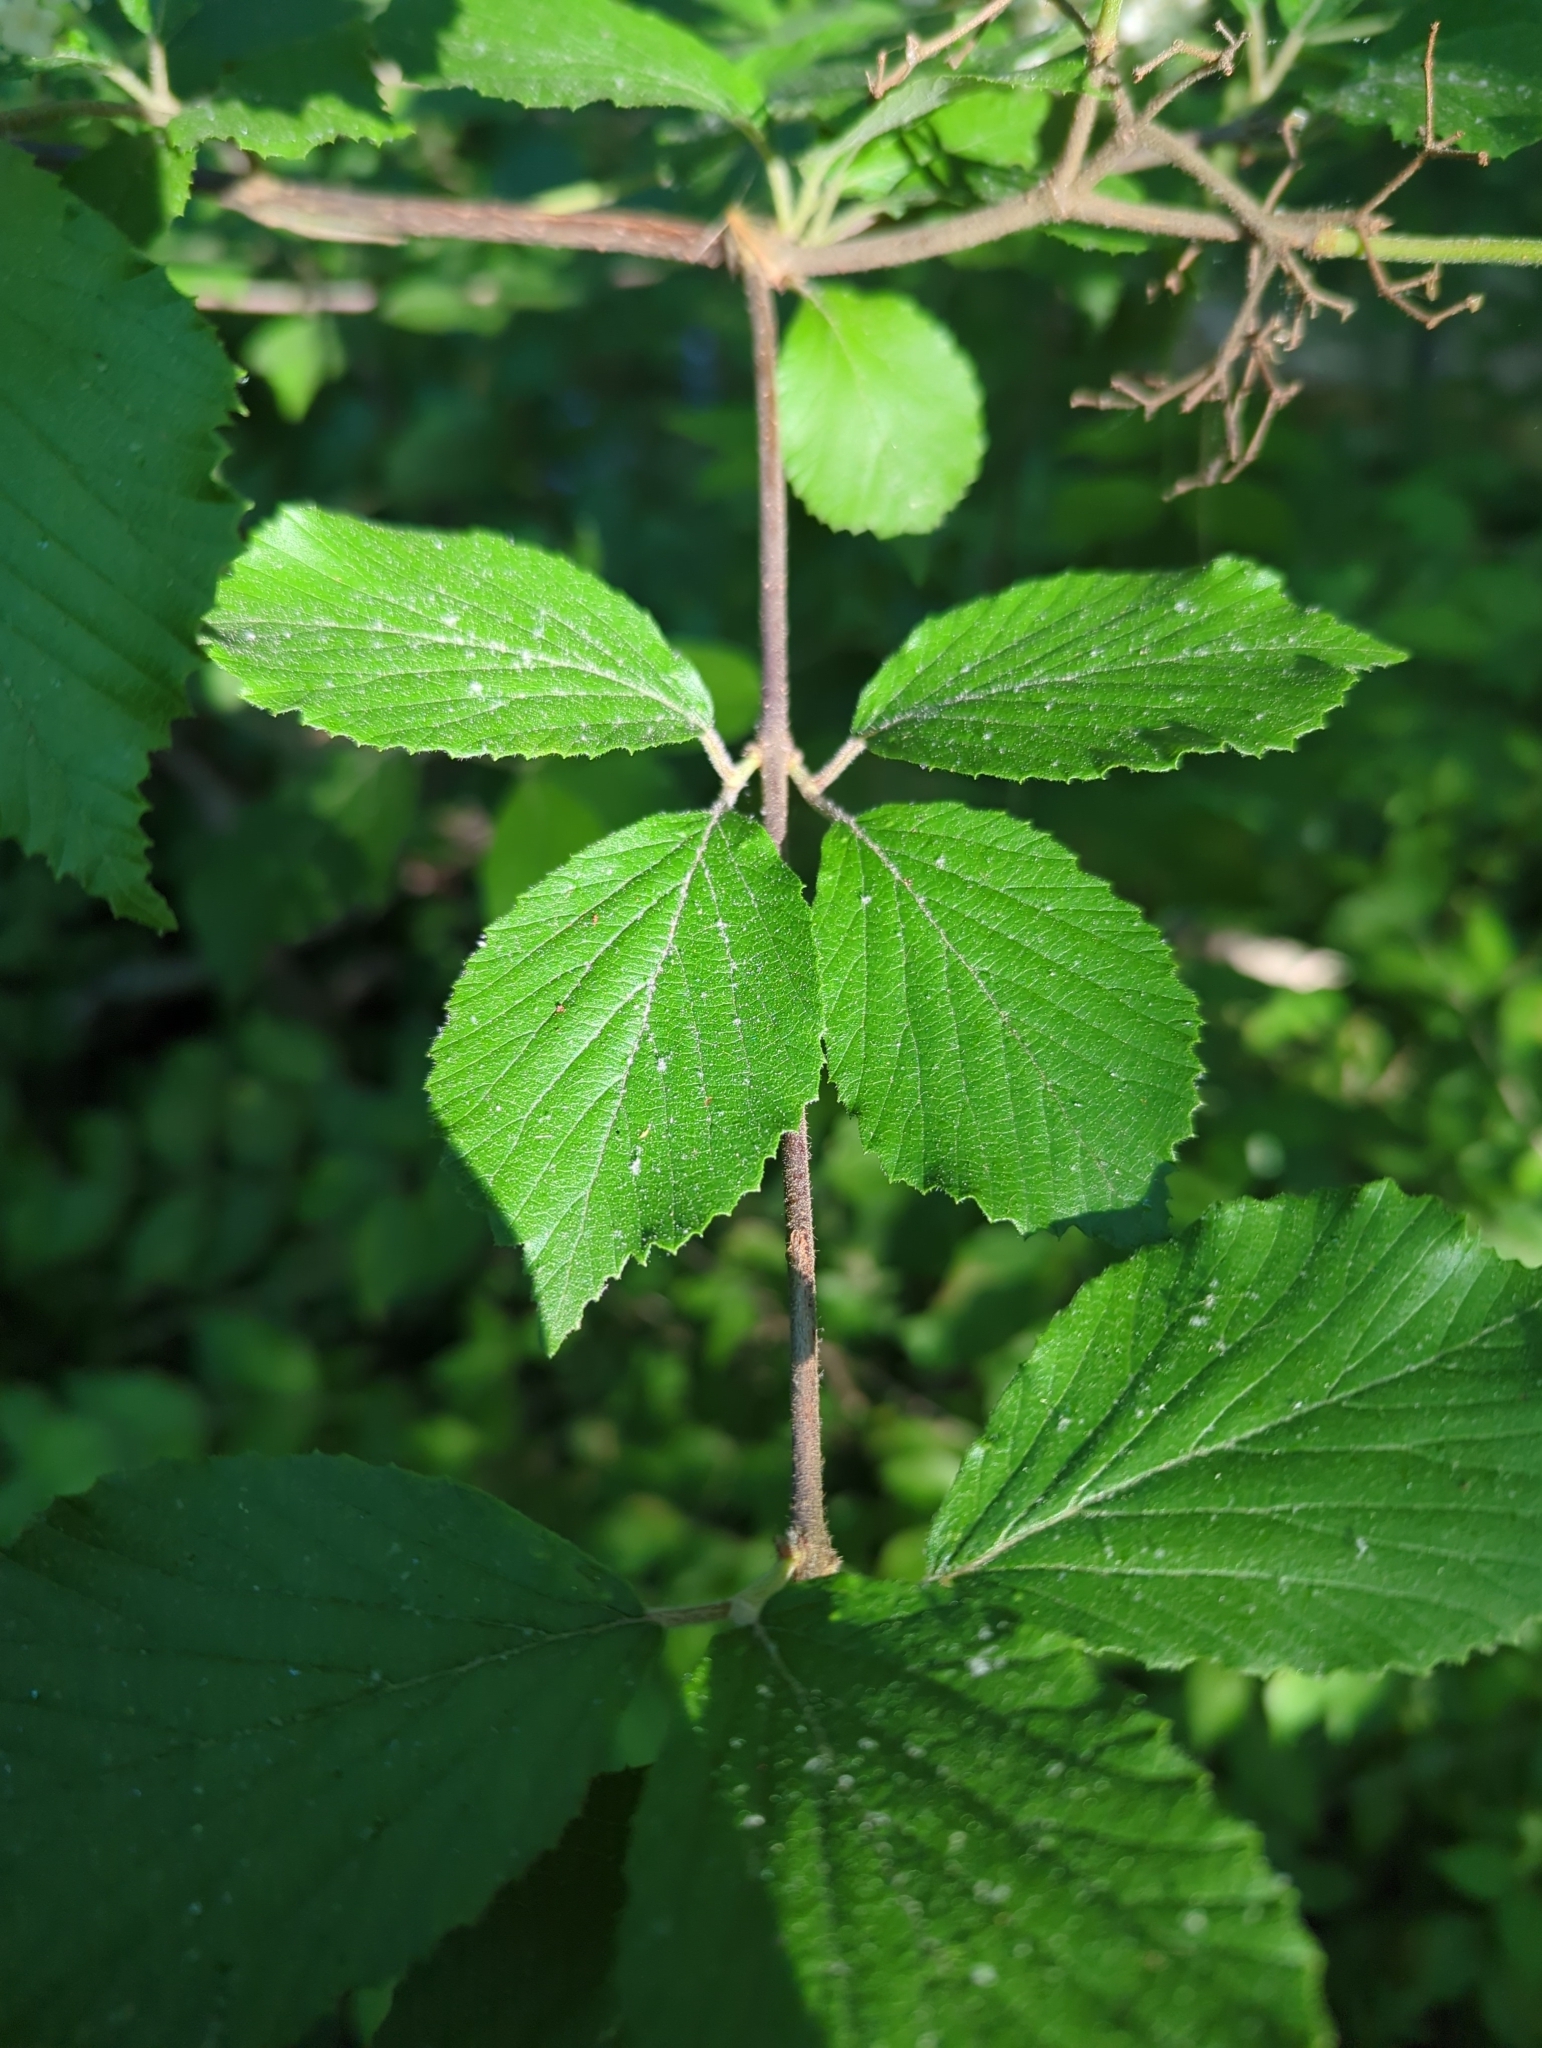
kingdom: Plantae
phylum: Tracheophyta
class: Magnoliopsida
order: Dipsacales
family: Viburnaceae
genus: Viburnum
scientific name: Viburnum dilatatum
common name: Linden arrowwood
